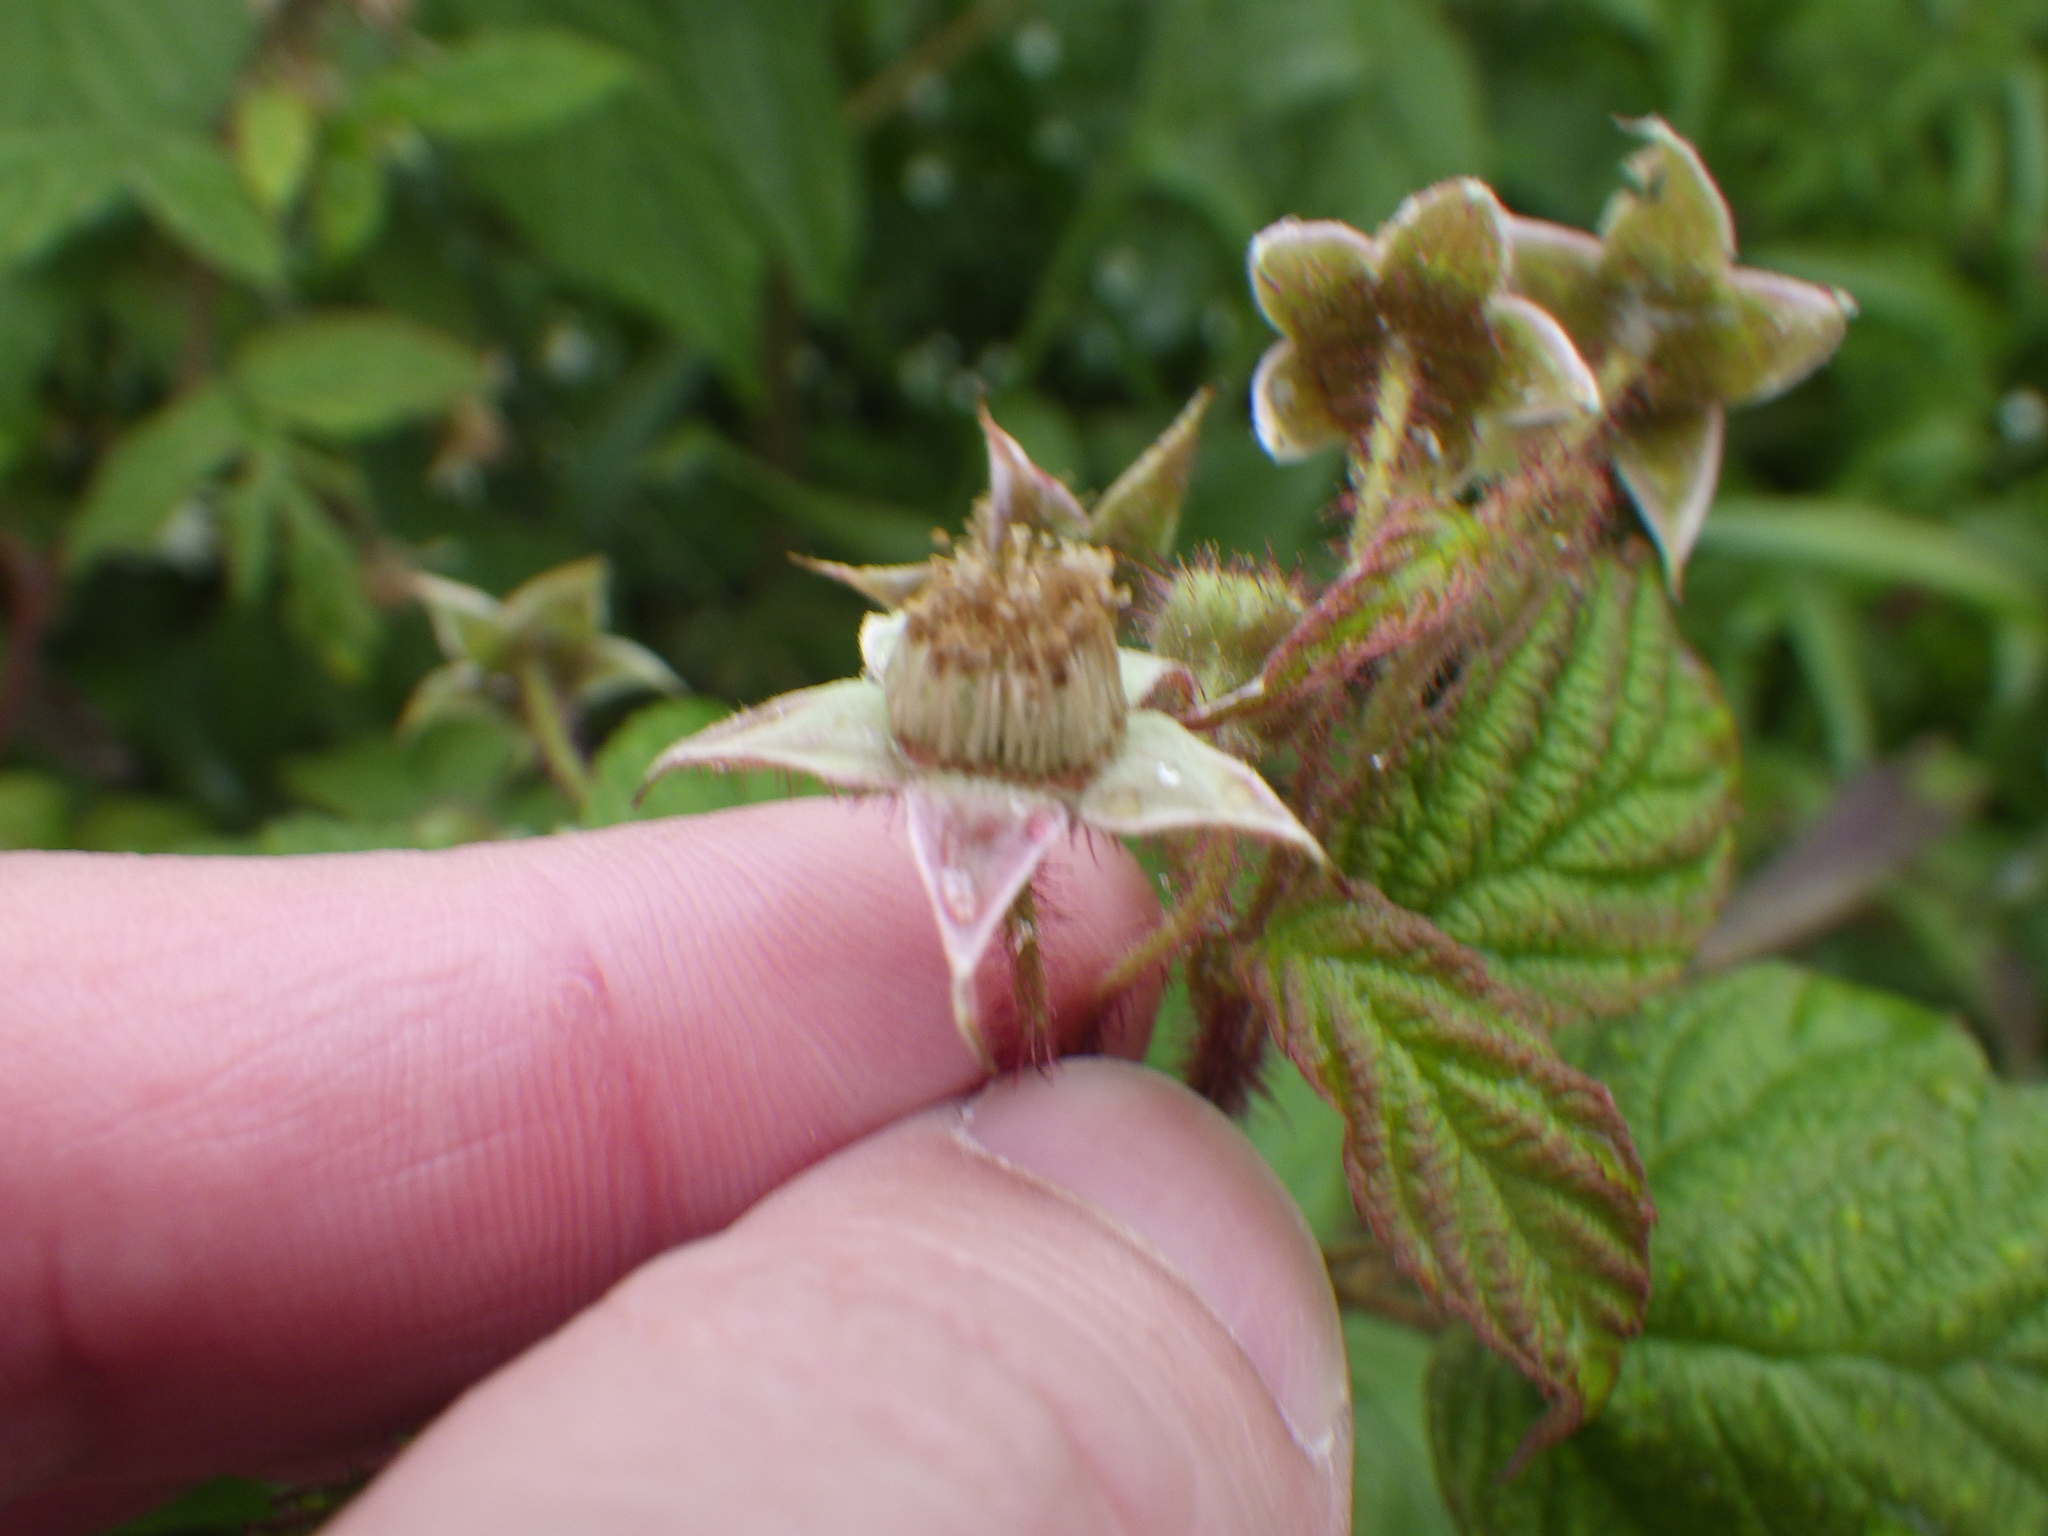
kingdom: Plantae
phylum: Tracheophyta
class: Magnoliopsida
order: Rosales
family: Rosaceae
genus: Rubus
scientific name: Rubus idaeus
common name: Raspberry
